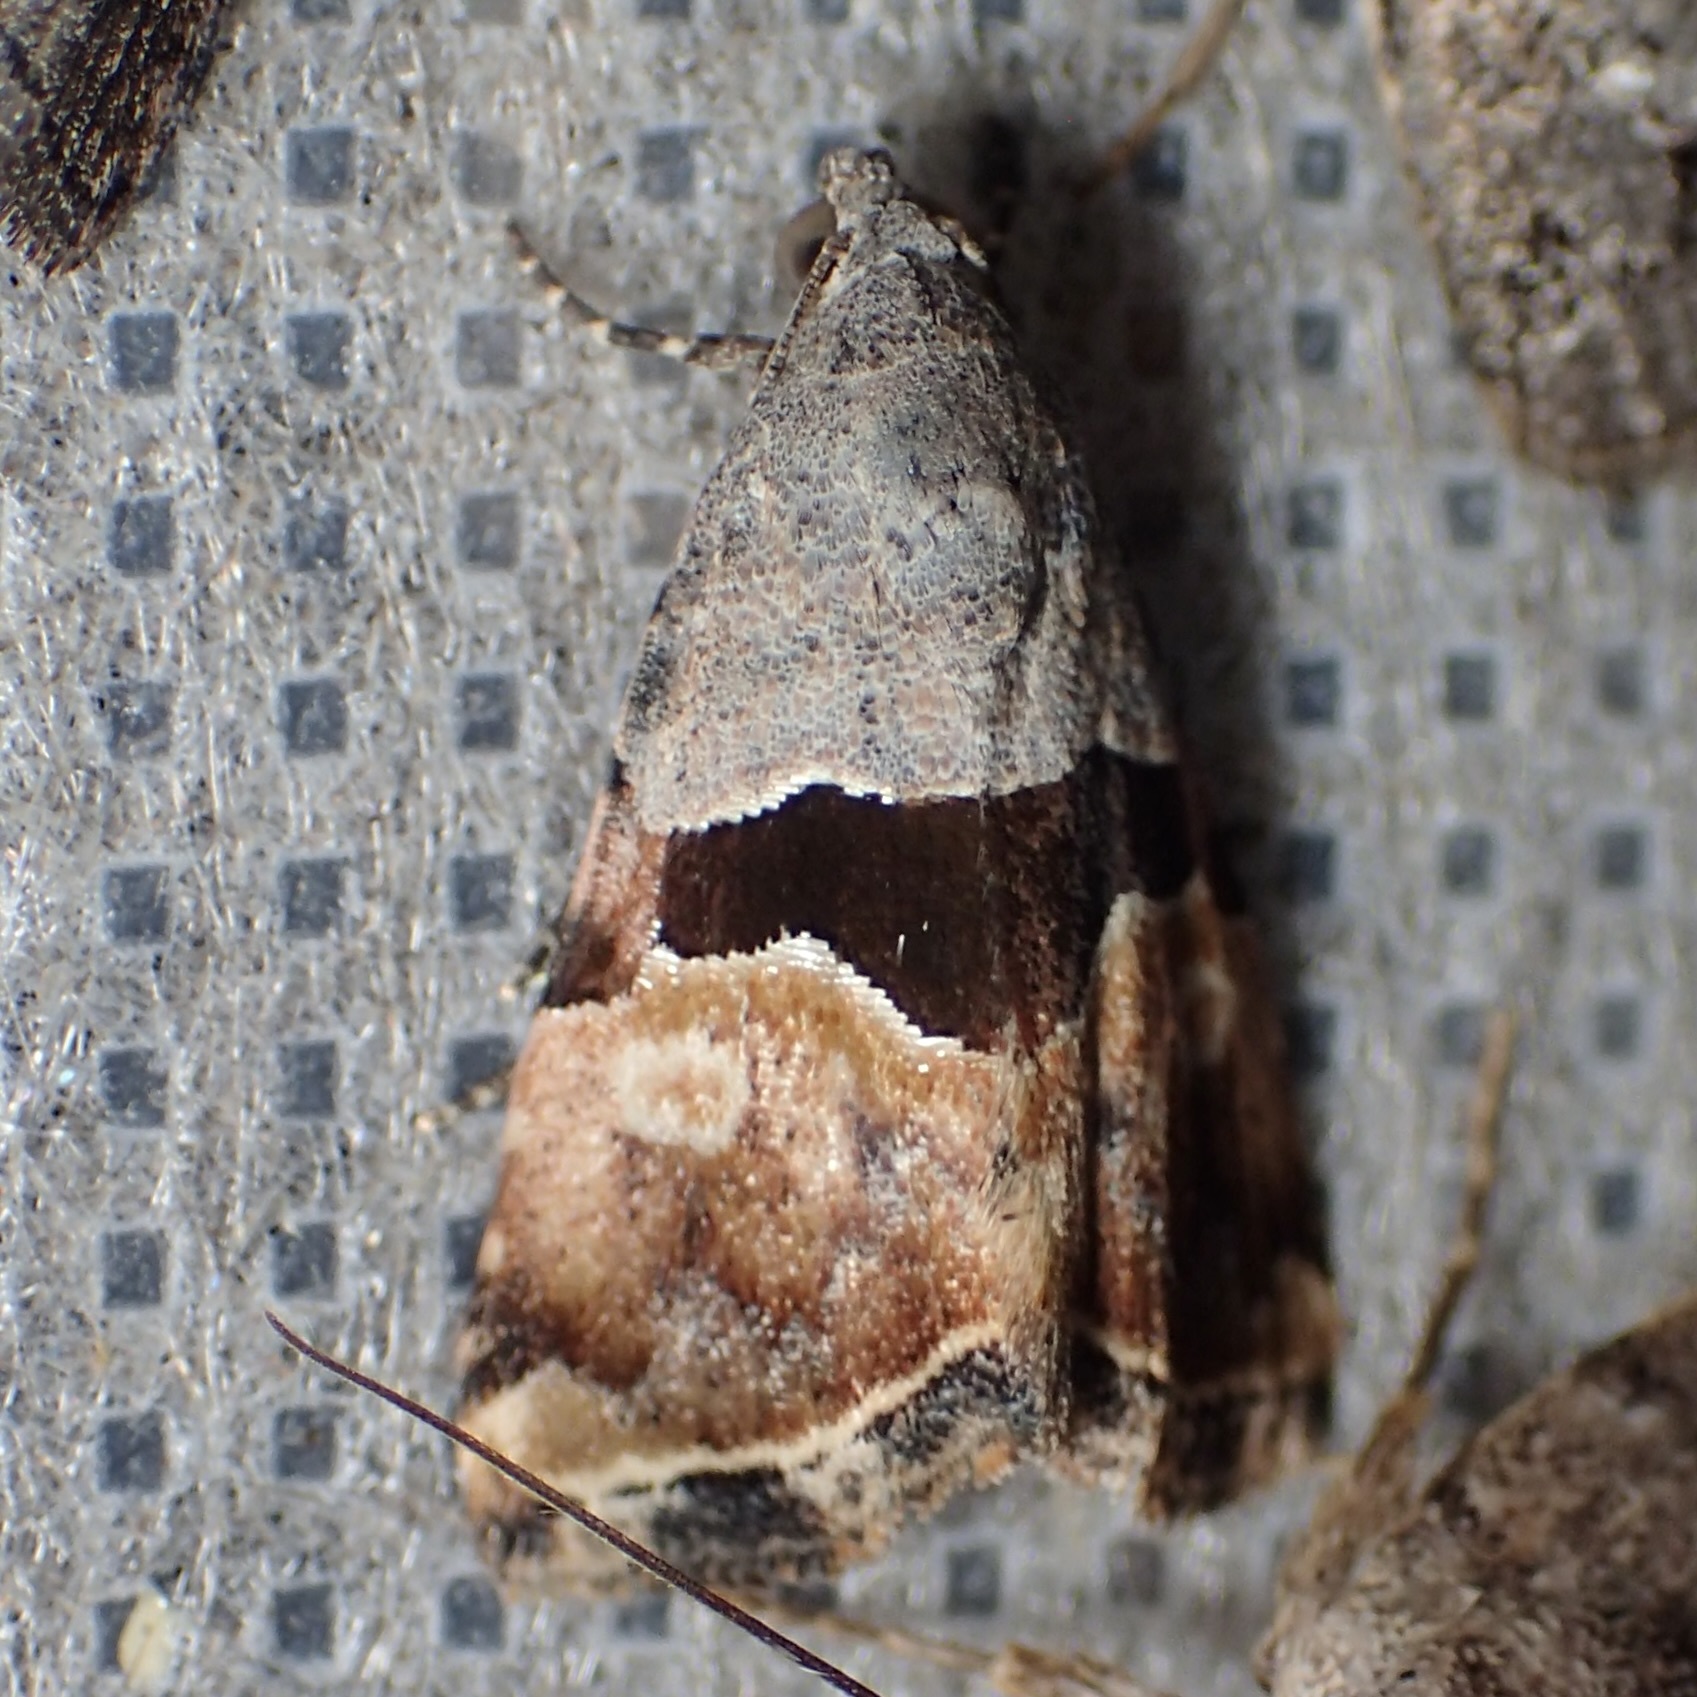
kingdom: Animalia
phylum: Arthropoda
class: Insecta
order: Lepidoptera
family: Noctuidae
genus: Cobubatha
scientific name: Cobubatha lixiva
